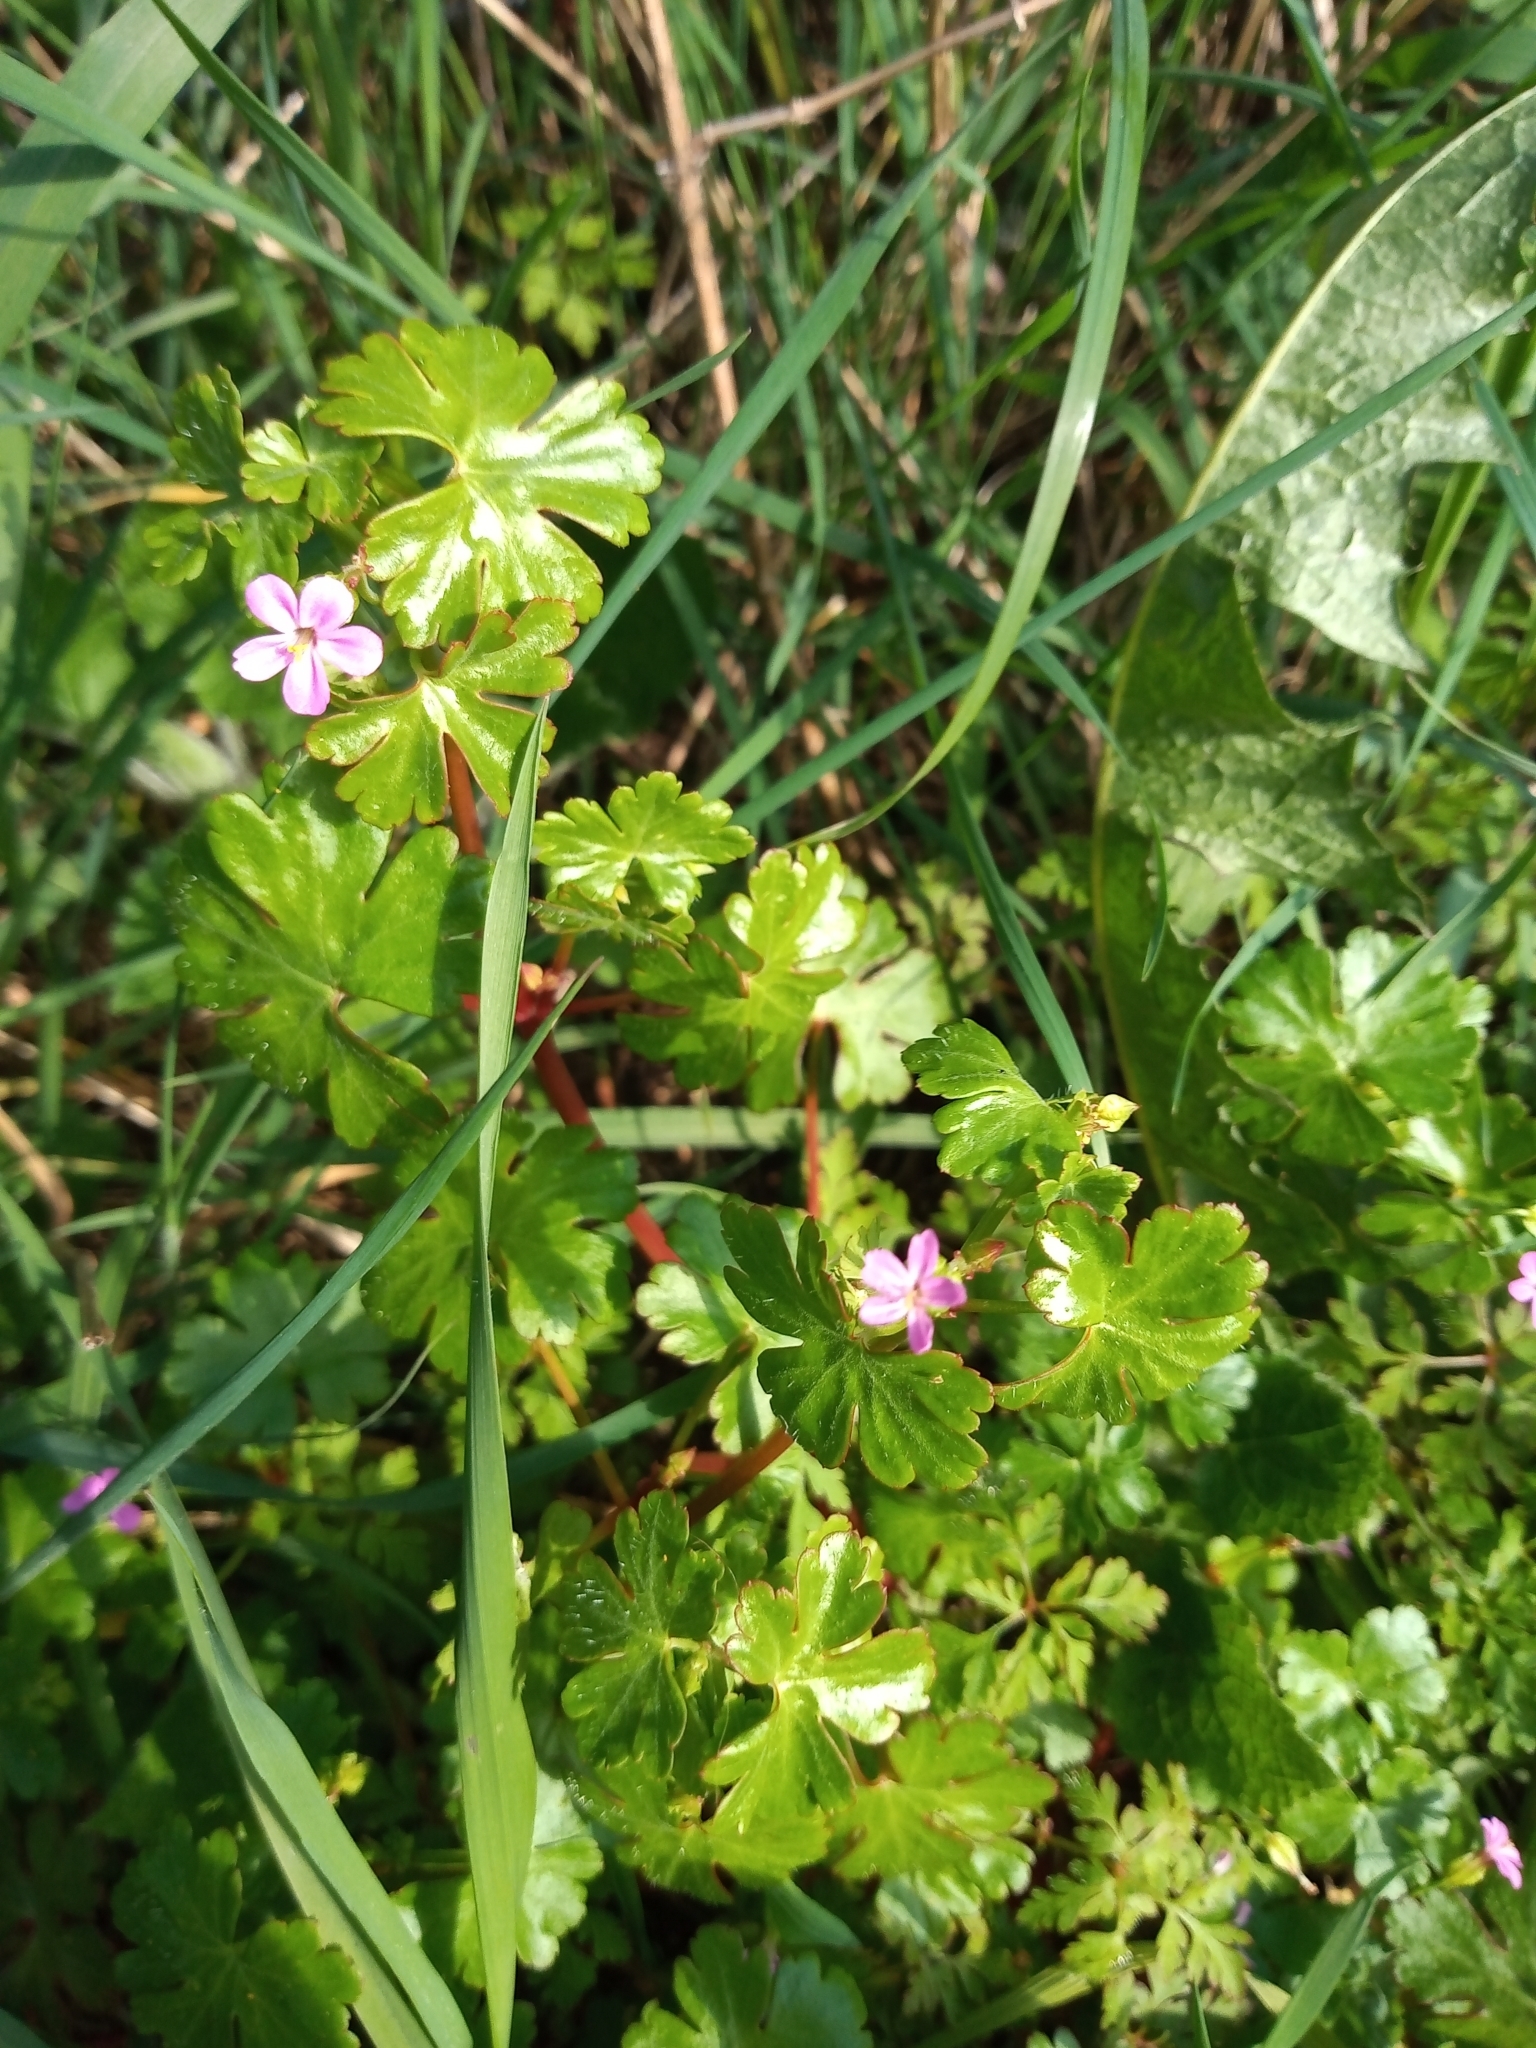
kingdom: Plantae
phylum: Tracheophyta
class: Magnoliopsida
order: Geraniales
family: Geraniaceae
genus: Geranium
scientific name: Geranium lucidum
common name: Shining crane's-bill
